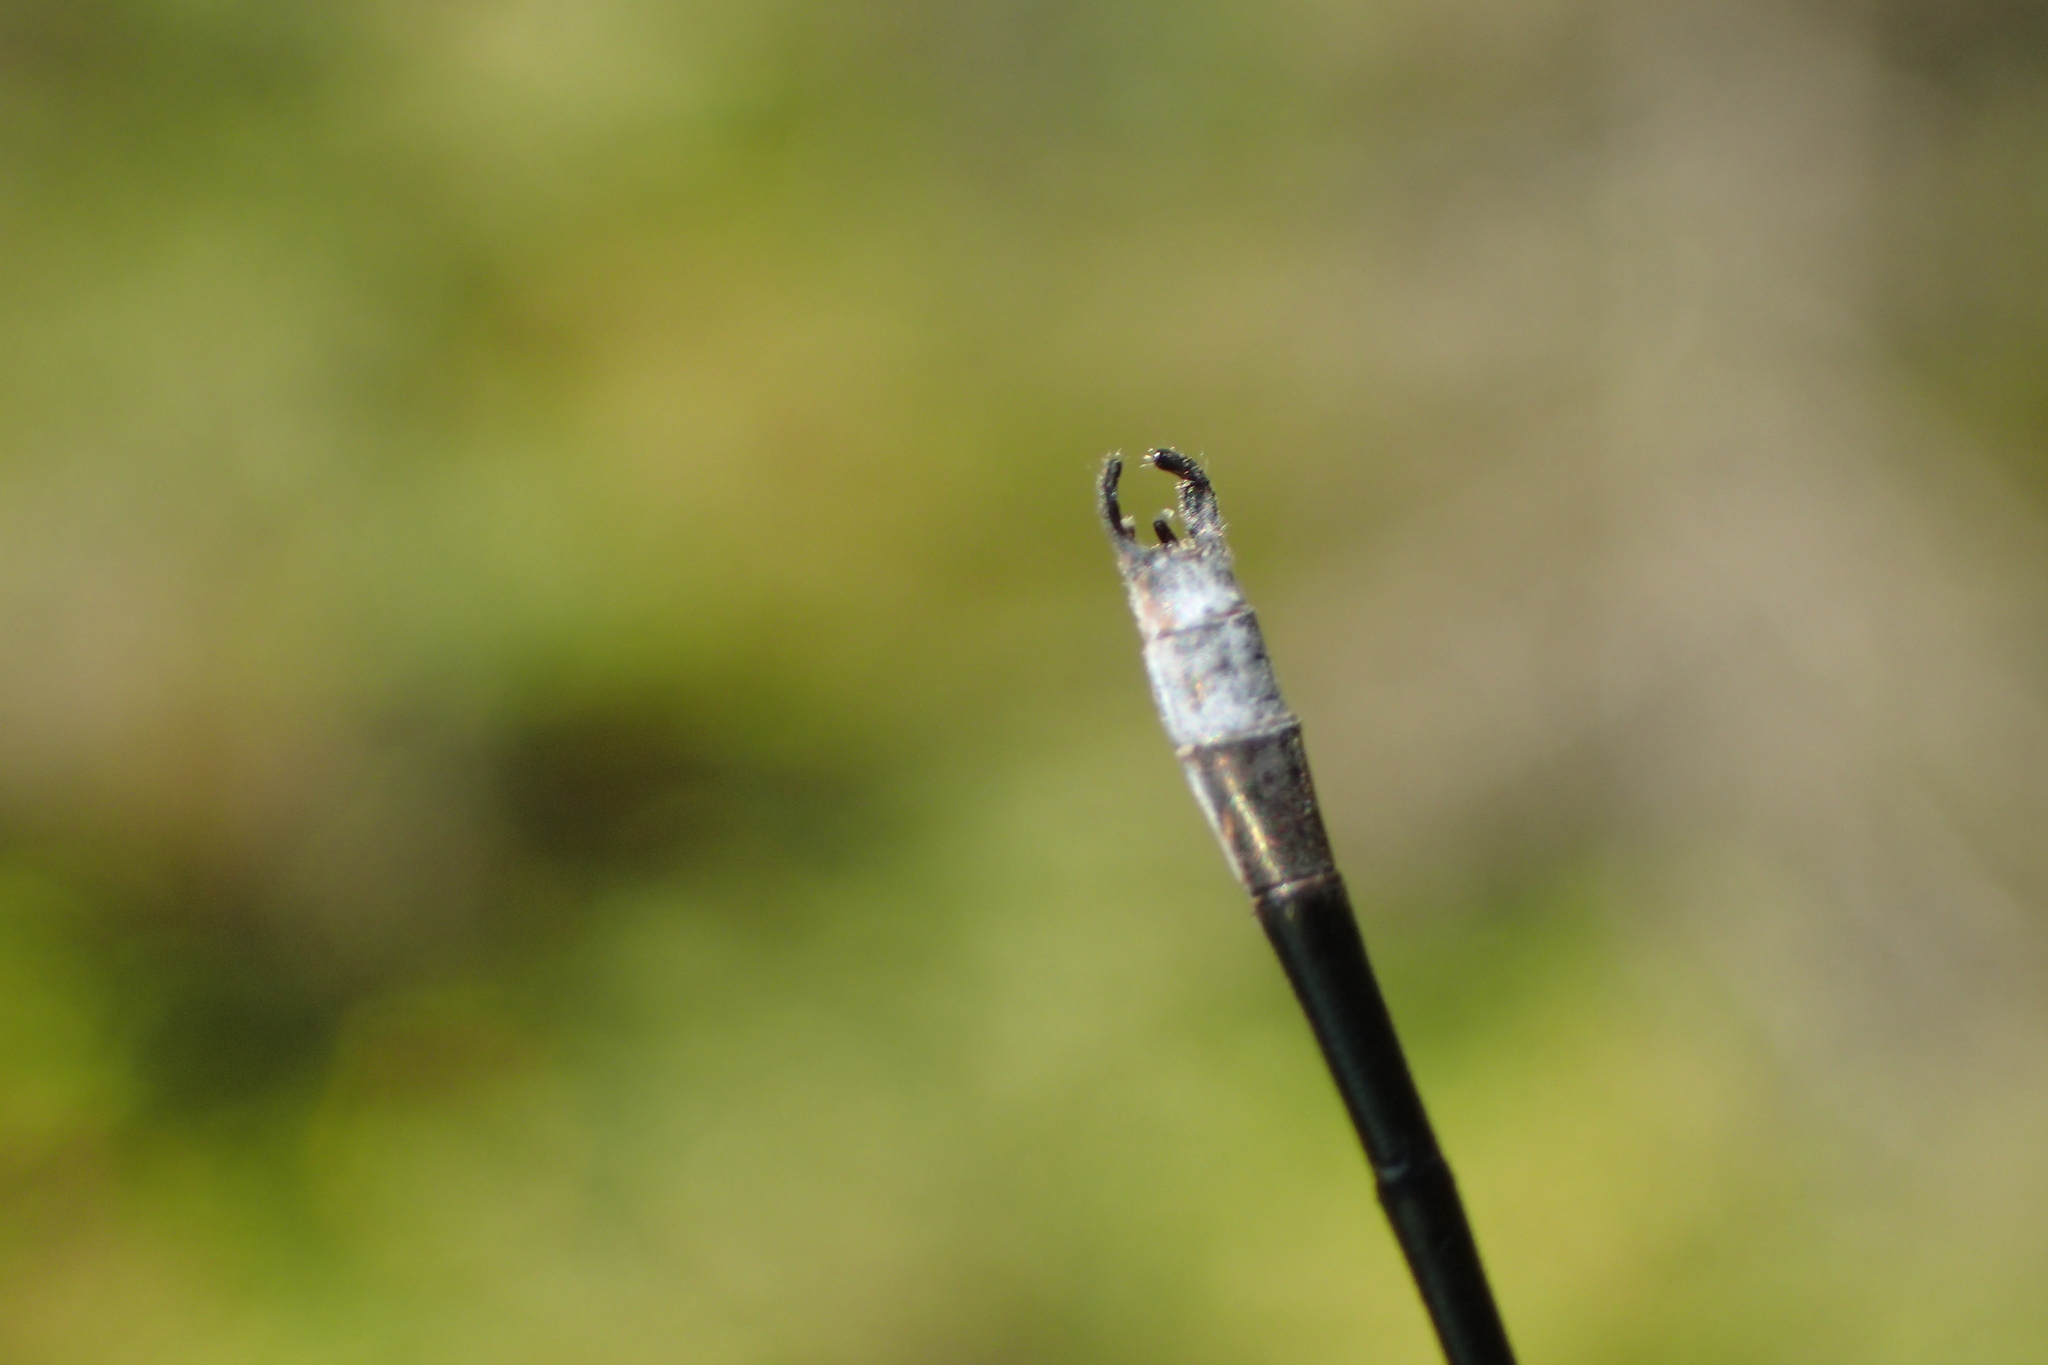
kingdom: Animalia
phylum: Arthropoda
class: Insecta
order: Odonata
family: Lestidae
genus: Lestes
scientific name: Lestes congener
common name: Spotted spreadwing
